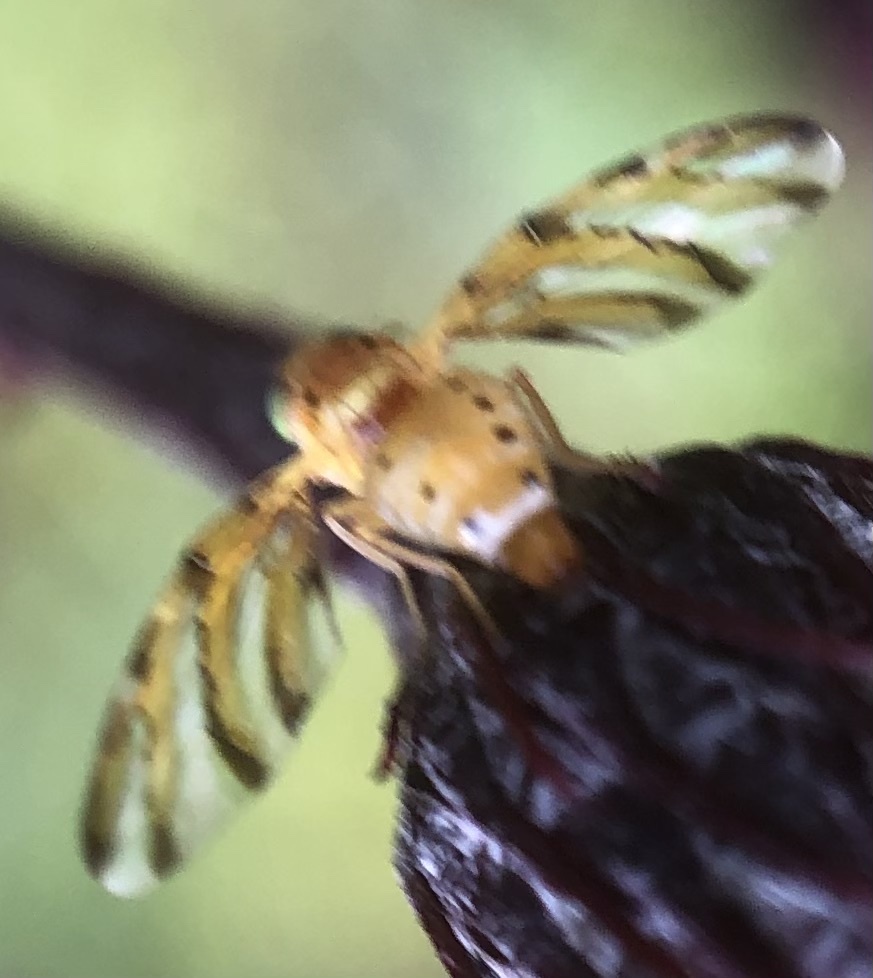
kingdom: Animalia
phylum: Arthropoda
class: Insecta
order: Diptera
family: Tephritidae
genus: Tomoplagia
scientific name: Tomoplagia obliqua
